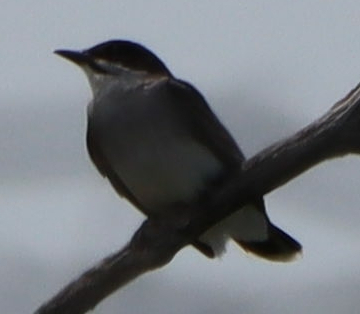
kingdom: Animalia
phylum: Chordata
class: Aves
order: Passeriformes
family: Tyrannidae
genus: Tyrannus
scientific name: Tyrannus tyrannus
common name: Eastern kingbird
